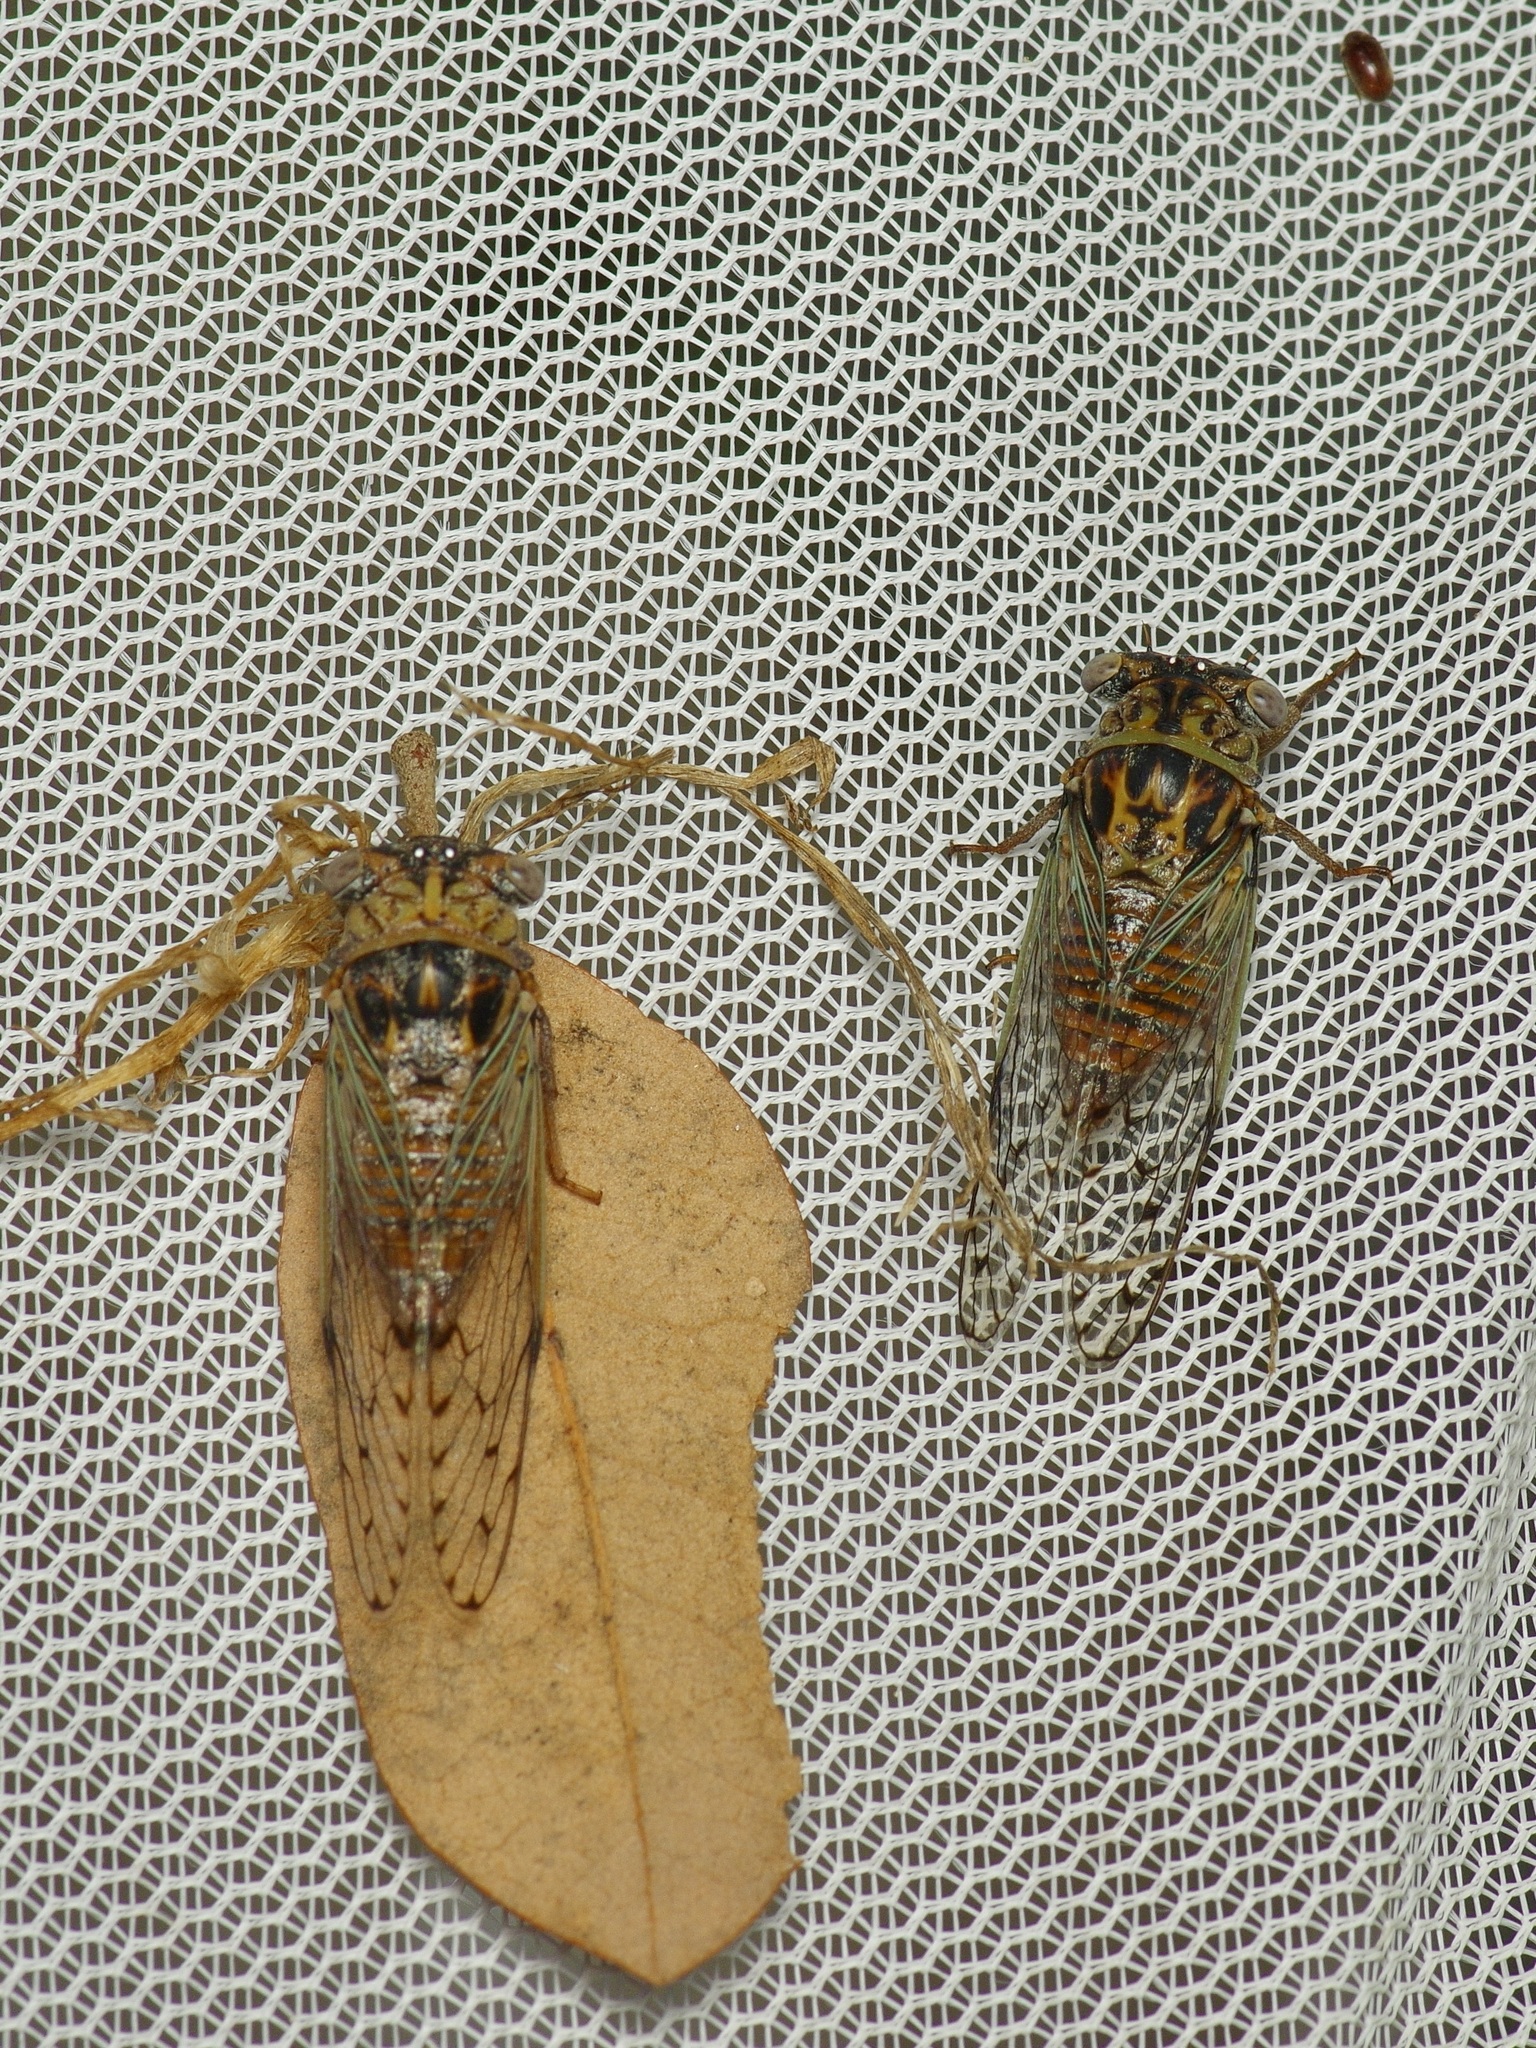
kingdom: Animalia
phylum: Arthropoda
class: Insecta
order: Hemiptera
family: Cicadidae
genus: Pacarina
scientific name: Pacarina puella
